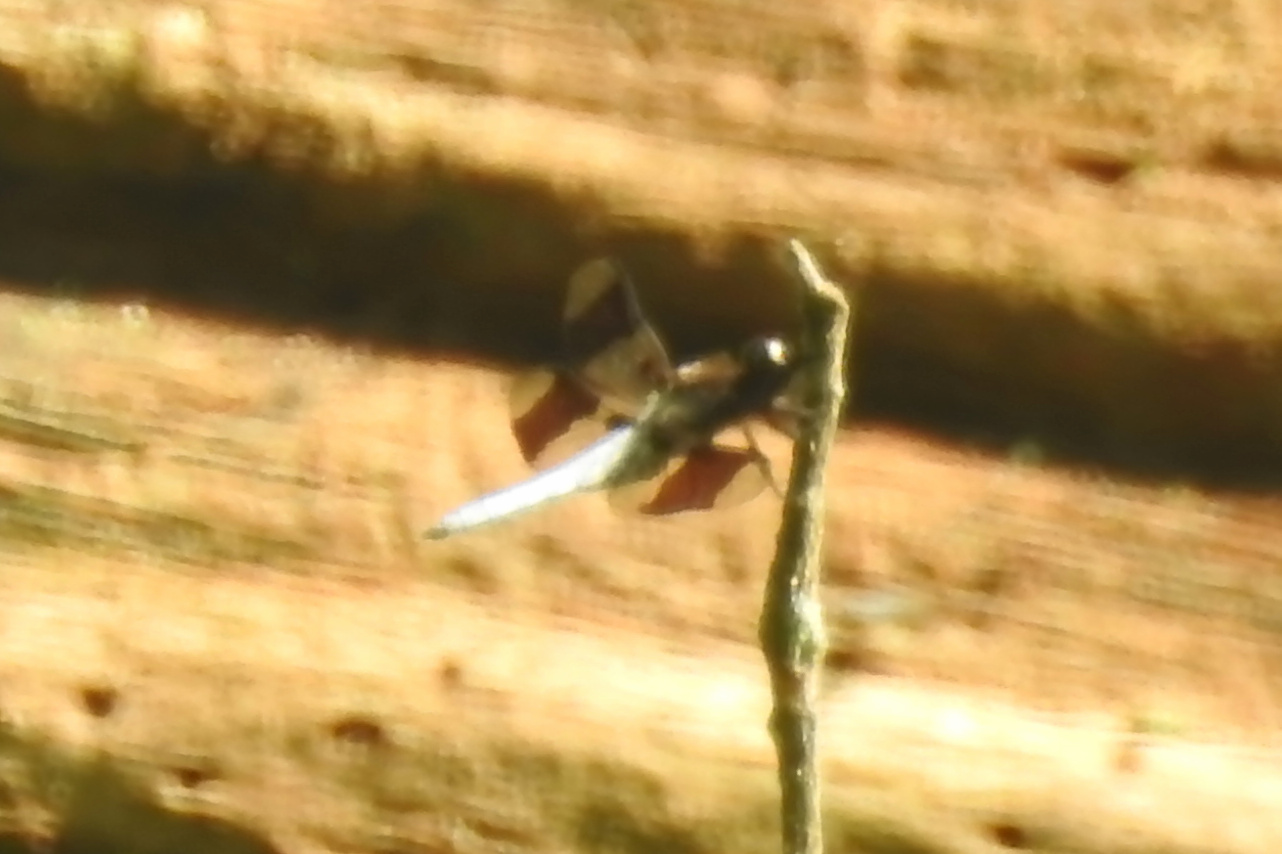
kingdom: Animalia
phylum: Arthropoda
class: Insecta
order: Odonata
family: Libellulidae
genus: Plathemis
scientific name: Plathemis lydia
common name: Common whitetail
